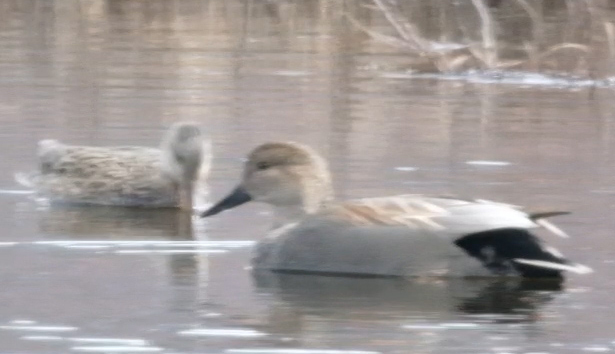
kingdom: Animalia
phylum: Chordata
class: Aves
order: Anseriformes
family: Anatidae
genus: Mareca
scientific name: Mareca strepera
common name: Gadwall
